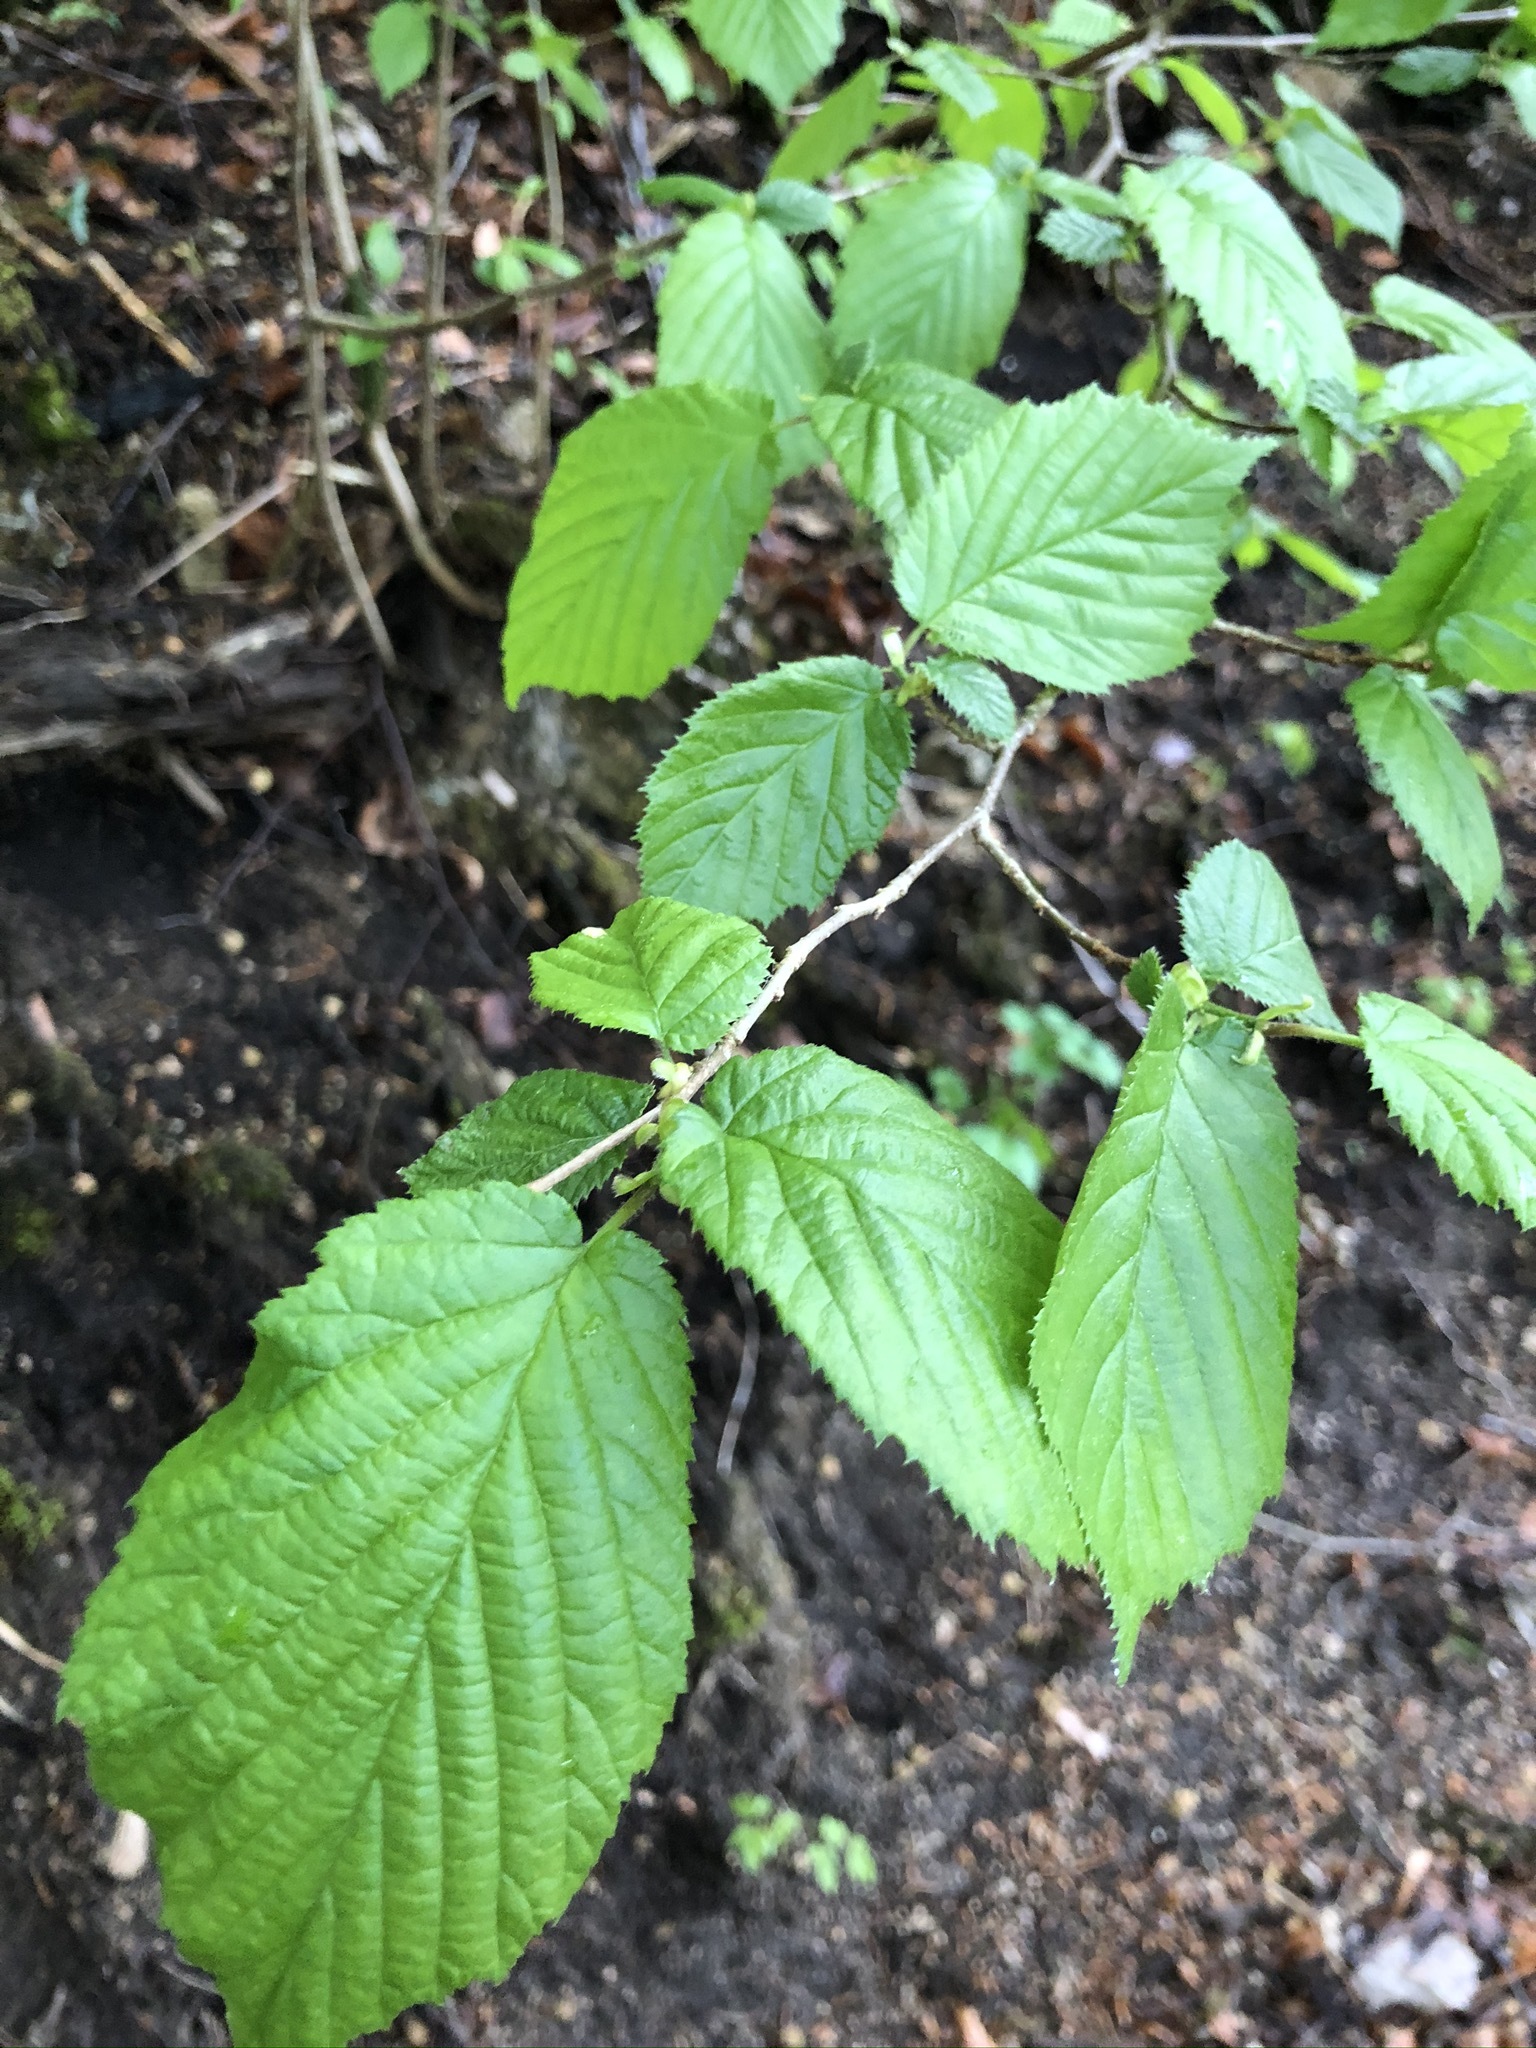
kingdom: Plantae
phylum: Tracheophyta
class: Magnoliopsida
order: Fagales
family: Betulaceae
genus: Corylus
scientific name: Corylus avellana
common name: European hazel
